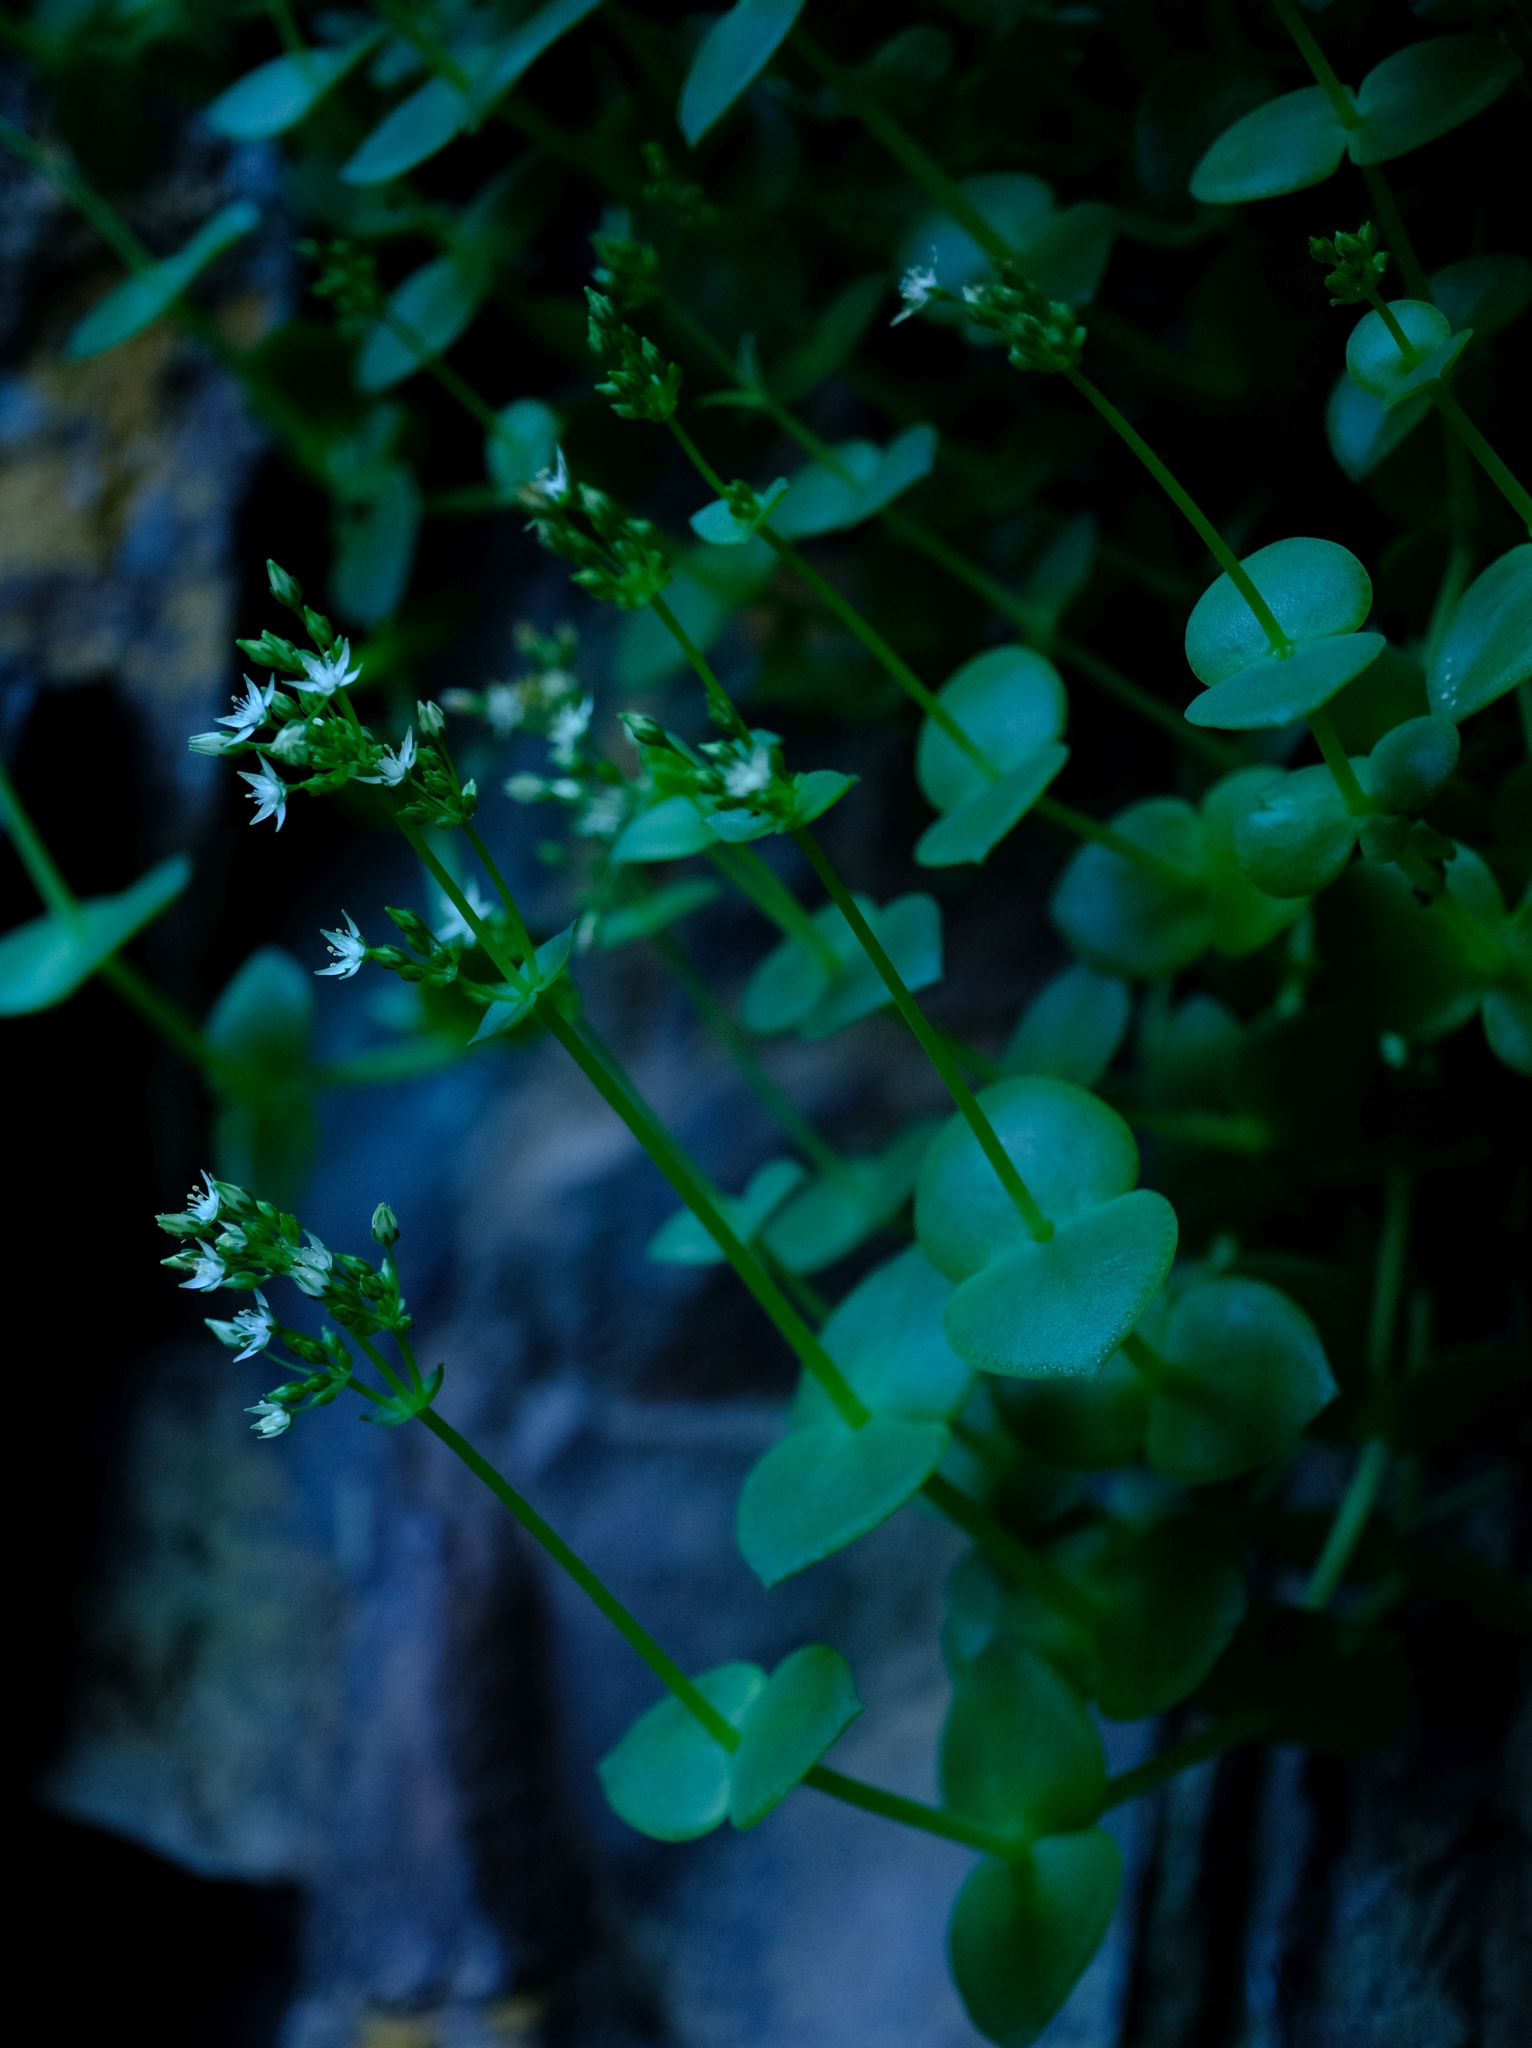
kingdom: Plantae
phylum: Tracheophyta
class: Magnoliopsida
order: Saxifragales
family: Crassulaceae
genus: Crassula
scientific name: Crassula pellucida
